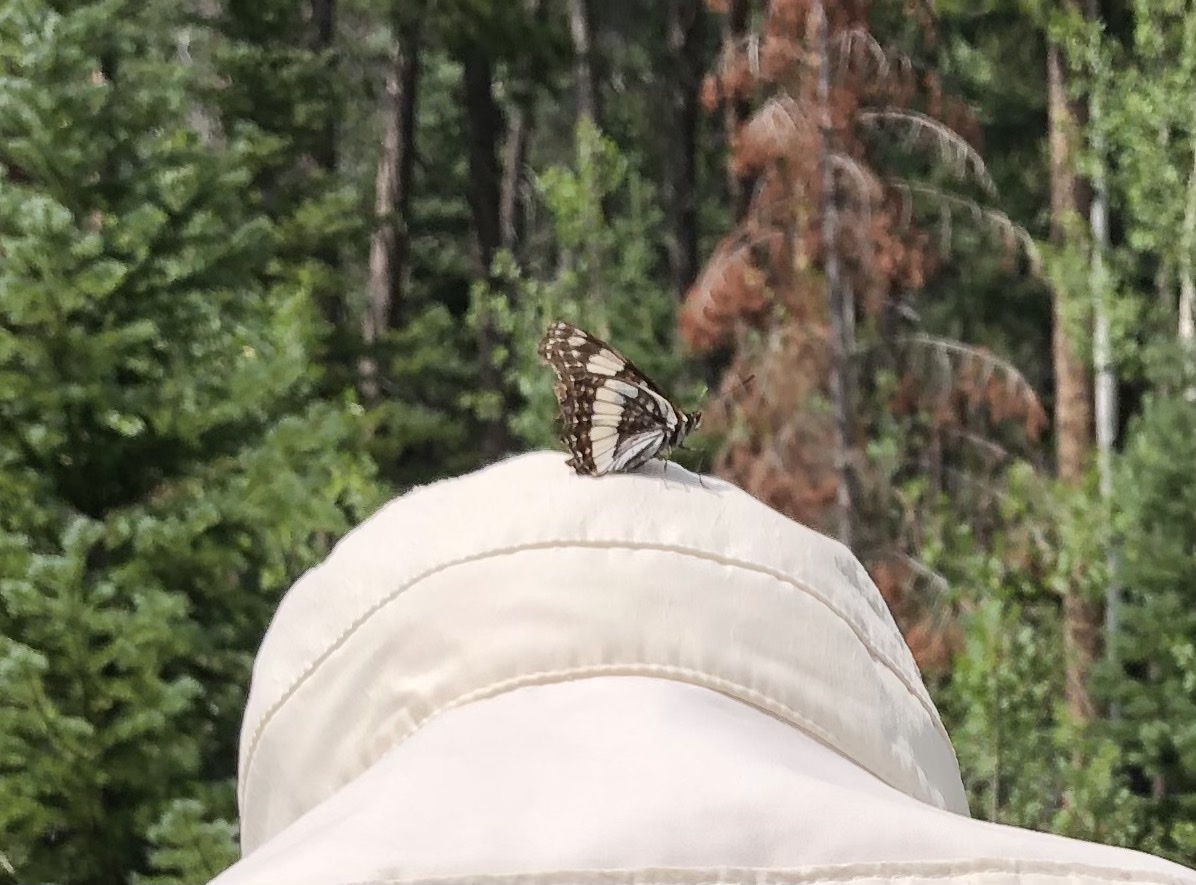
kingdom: Animalia
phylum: Arthropoda
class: Insecta
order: Lepidoptera
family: Nymphalidae
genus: Limenitis
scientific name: Limenitis weidemeyerii
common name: Weidemeyer's admiral
